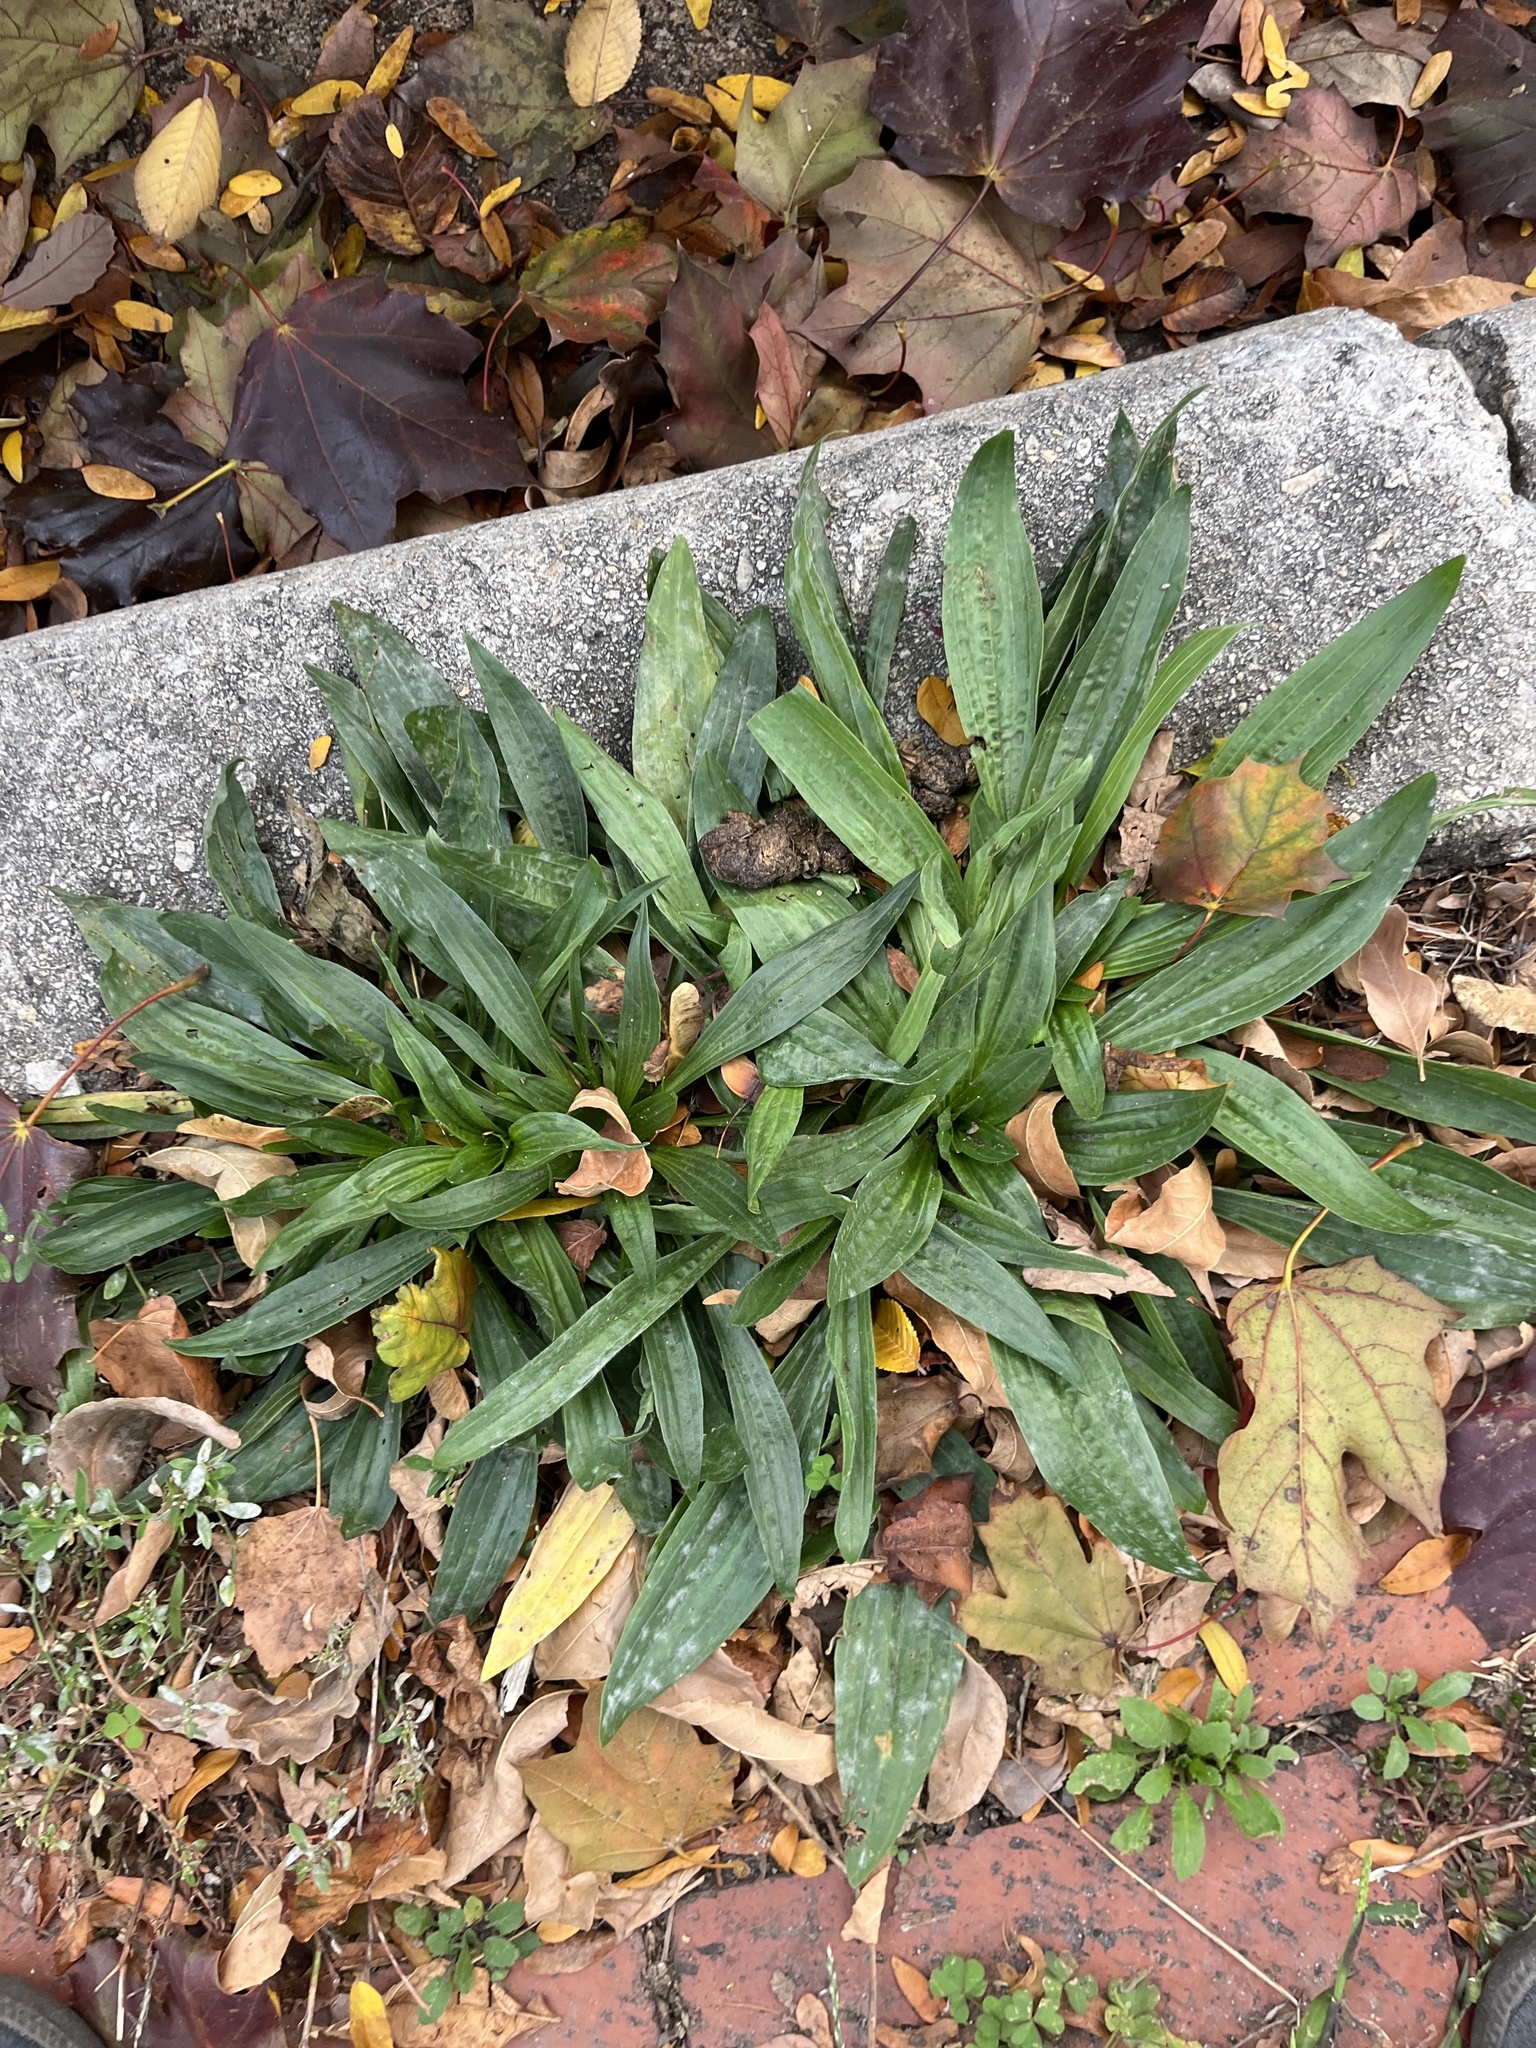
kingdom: Plantae
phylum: Tracheophyta
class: Magnoliopsida
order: Lamiales
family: Plantaginaceae
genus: Plantago
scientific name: Plantago lanceolata
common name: Ribwort plantain
